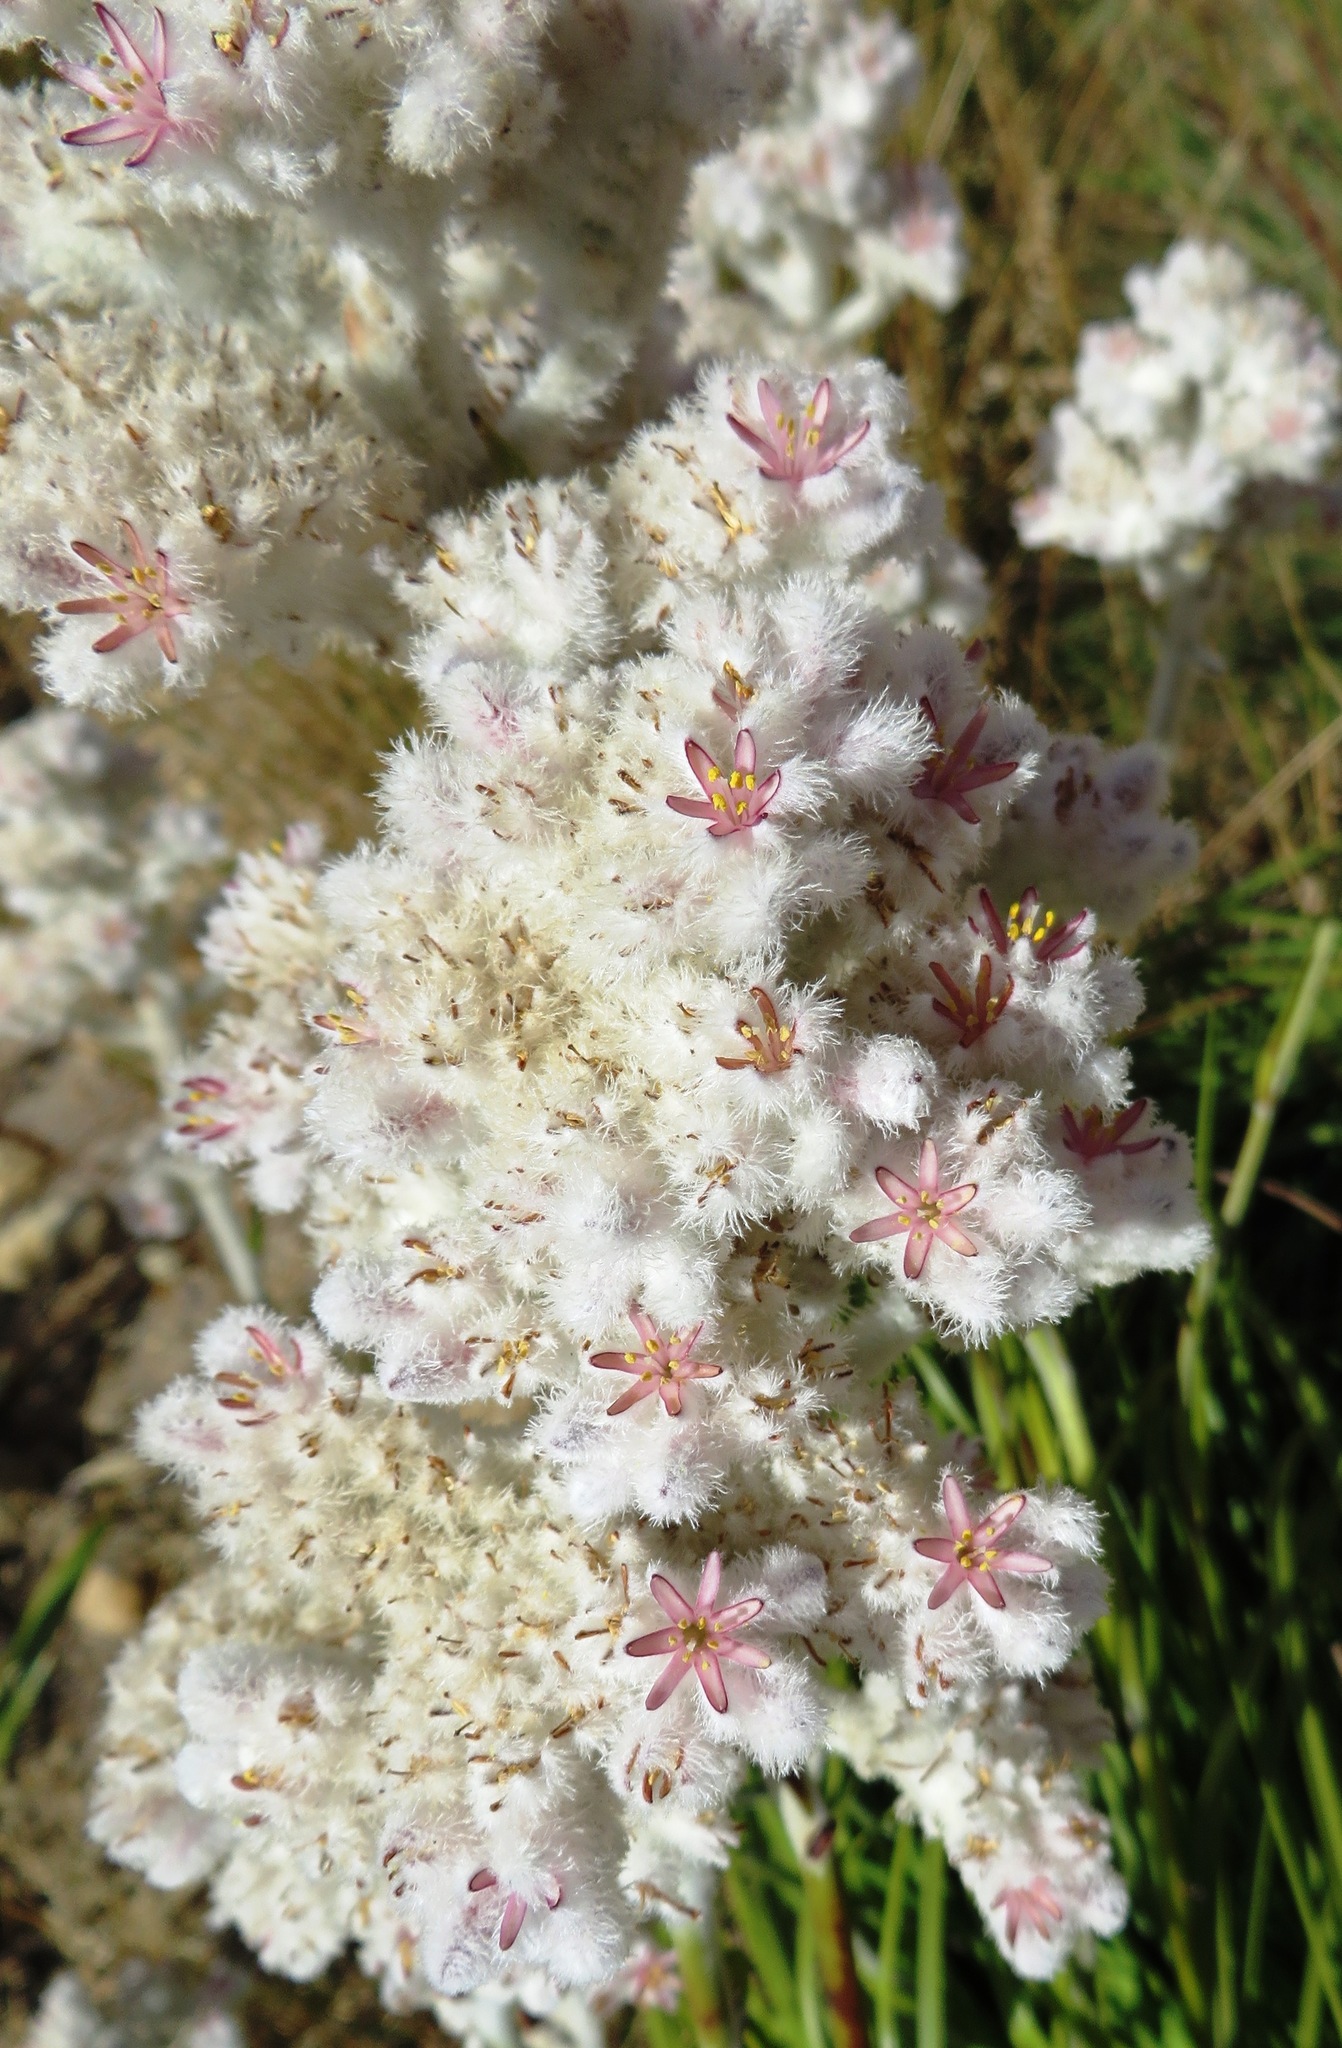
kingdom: Plantae
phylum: Tracheophyta
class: Liliopsida
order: Asparagales
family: Lanariaceae
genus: Lanaria
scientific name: Lanaria lanata
